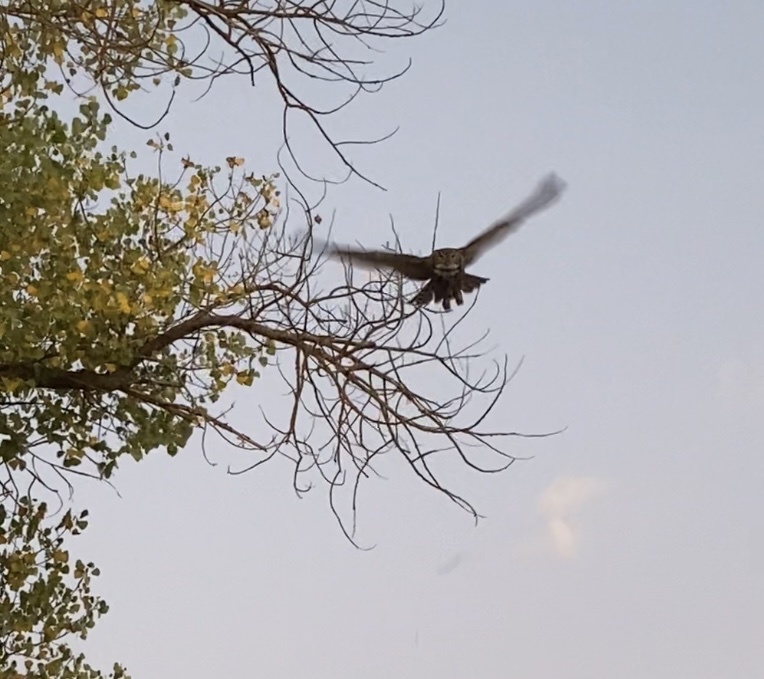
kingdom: Animalia
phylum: Chordata
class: Aves
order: Strigiformes
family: Strigidae
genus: Bubo
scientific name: Bubo virginianus
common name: Great horned owl
